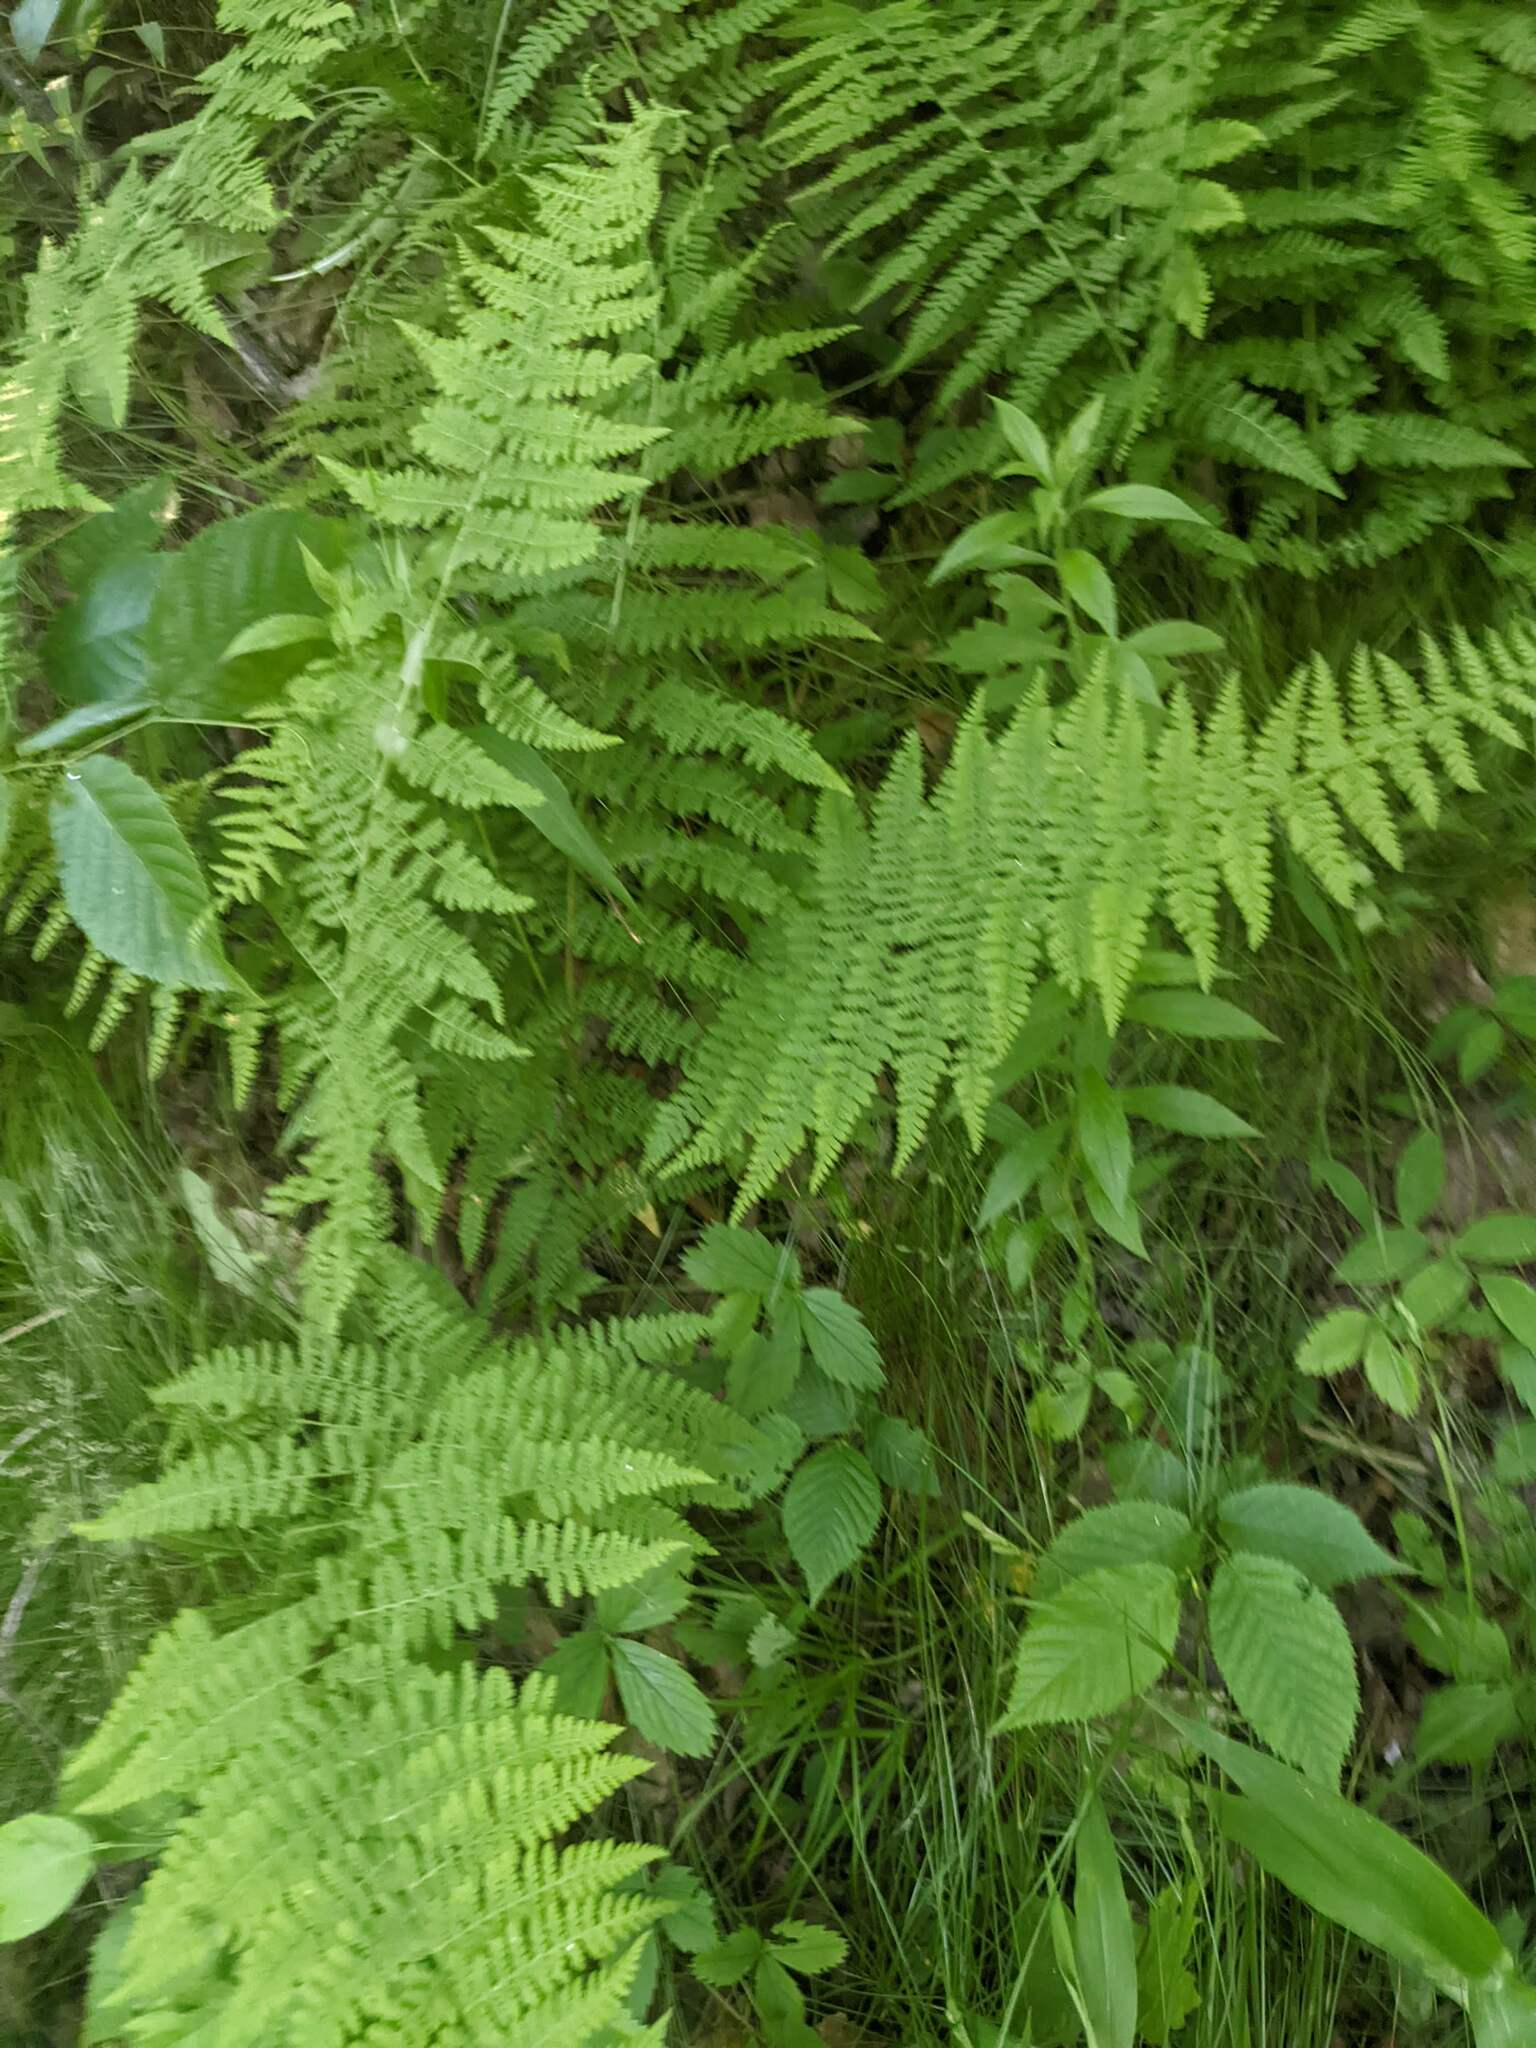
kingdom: Plantae
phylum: Tracheophyta
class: Polypodiopsida
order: Polypodiales
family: Dennstaedtiaceae
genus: Sitobolium
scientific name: Sitobolium punctilobum
